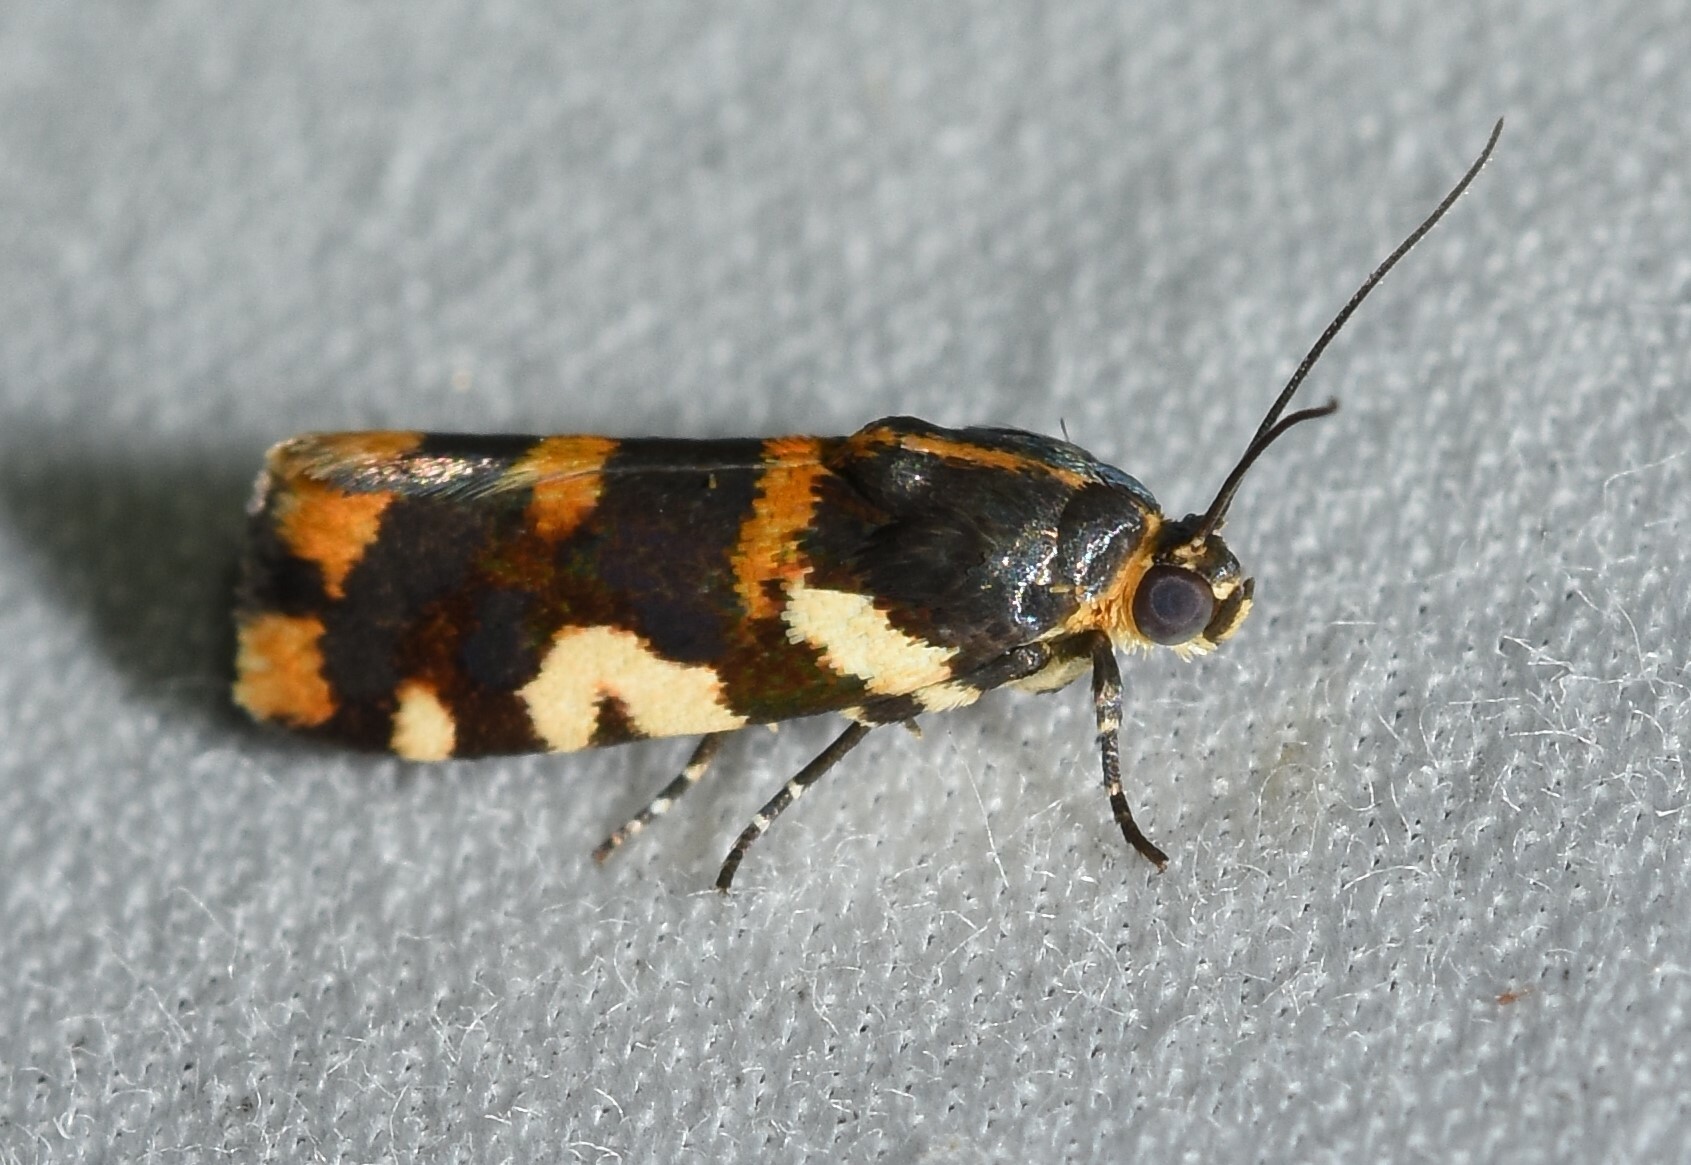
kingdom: Animalia
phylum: Arthropoda
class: Insecta
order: Lepidoptera
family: Noctuidae
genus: Acontia
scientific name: Acontia dama
